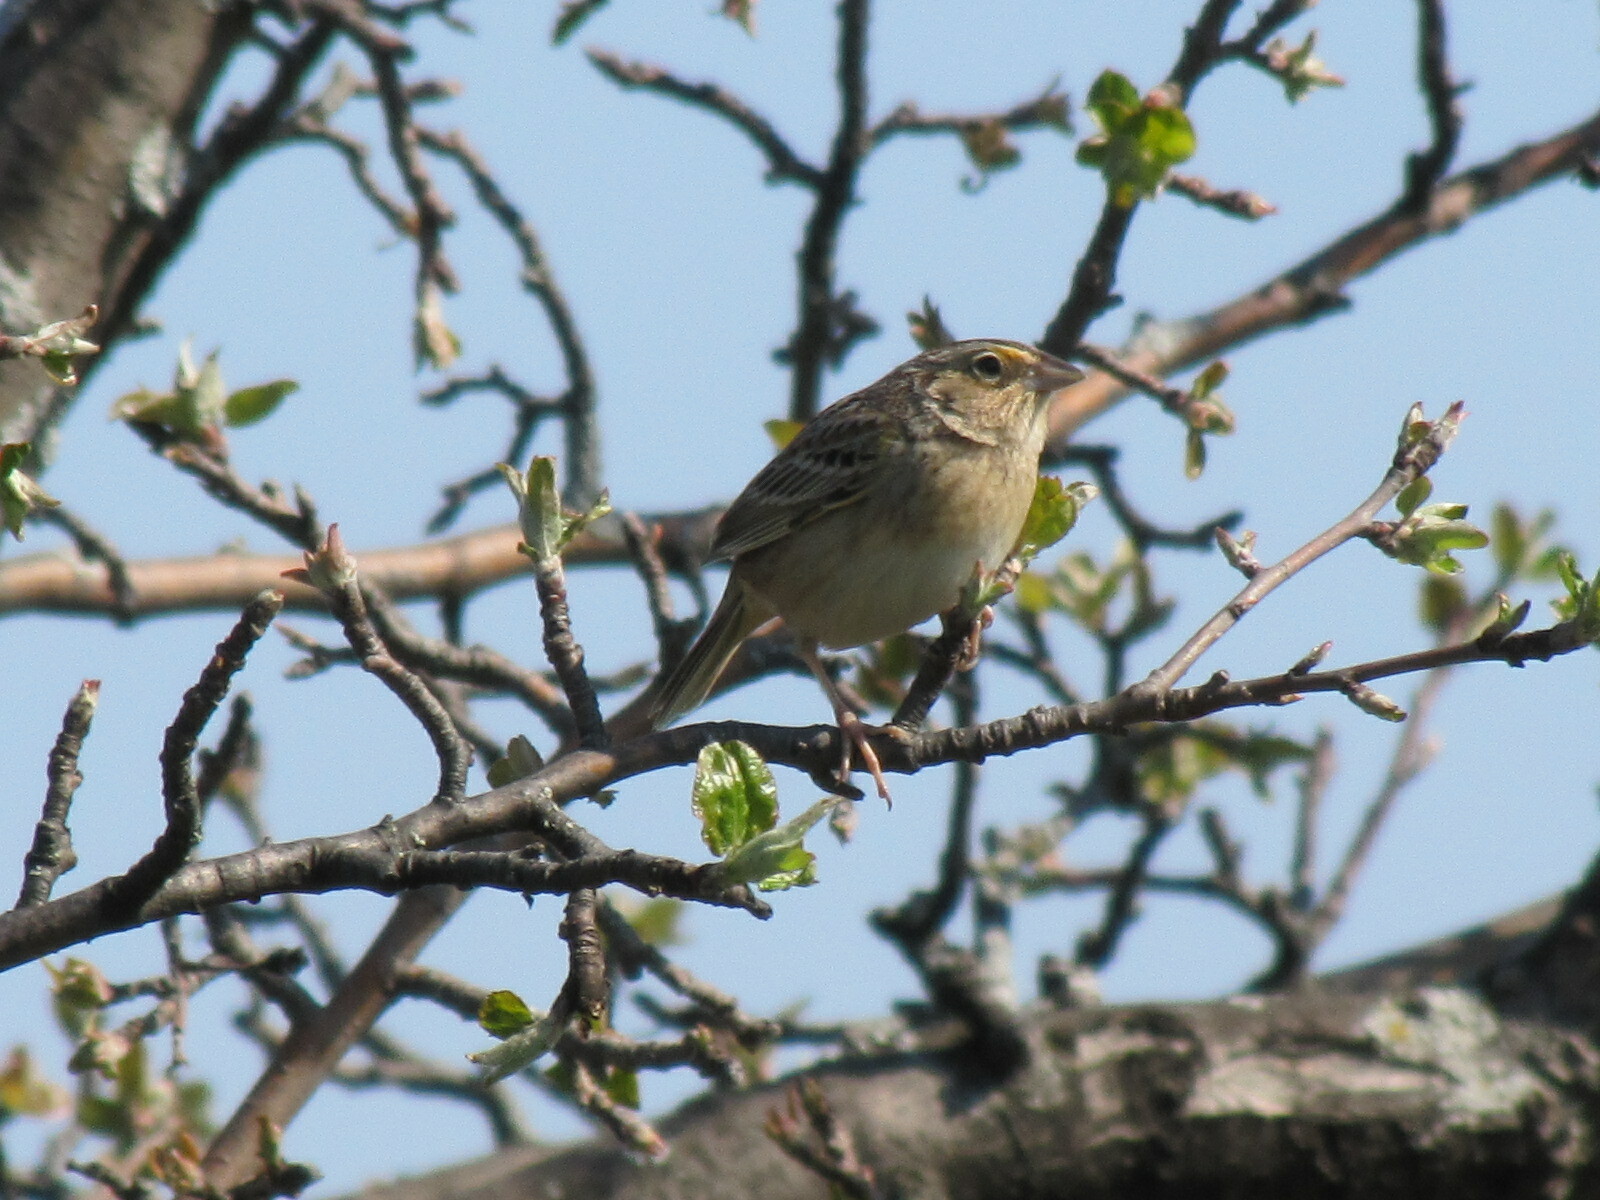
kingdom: Animalia
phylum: Chordata
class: Aves
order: Passeriformes
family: Passerellidae
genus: Ammodramus
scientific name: Ammodramus savannarum
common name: Grasshopper sparrow
